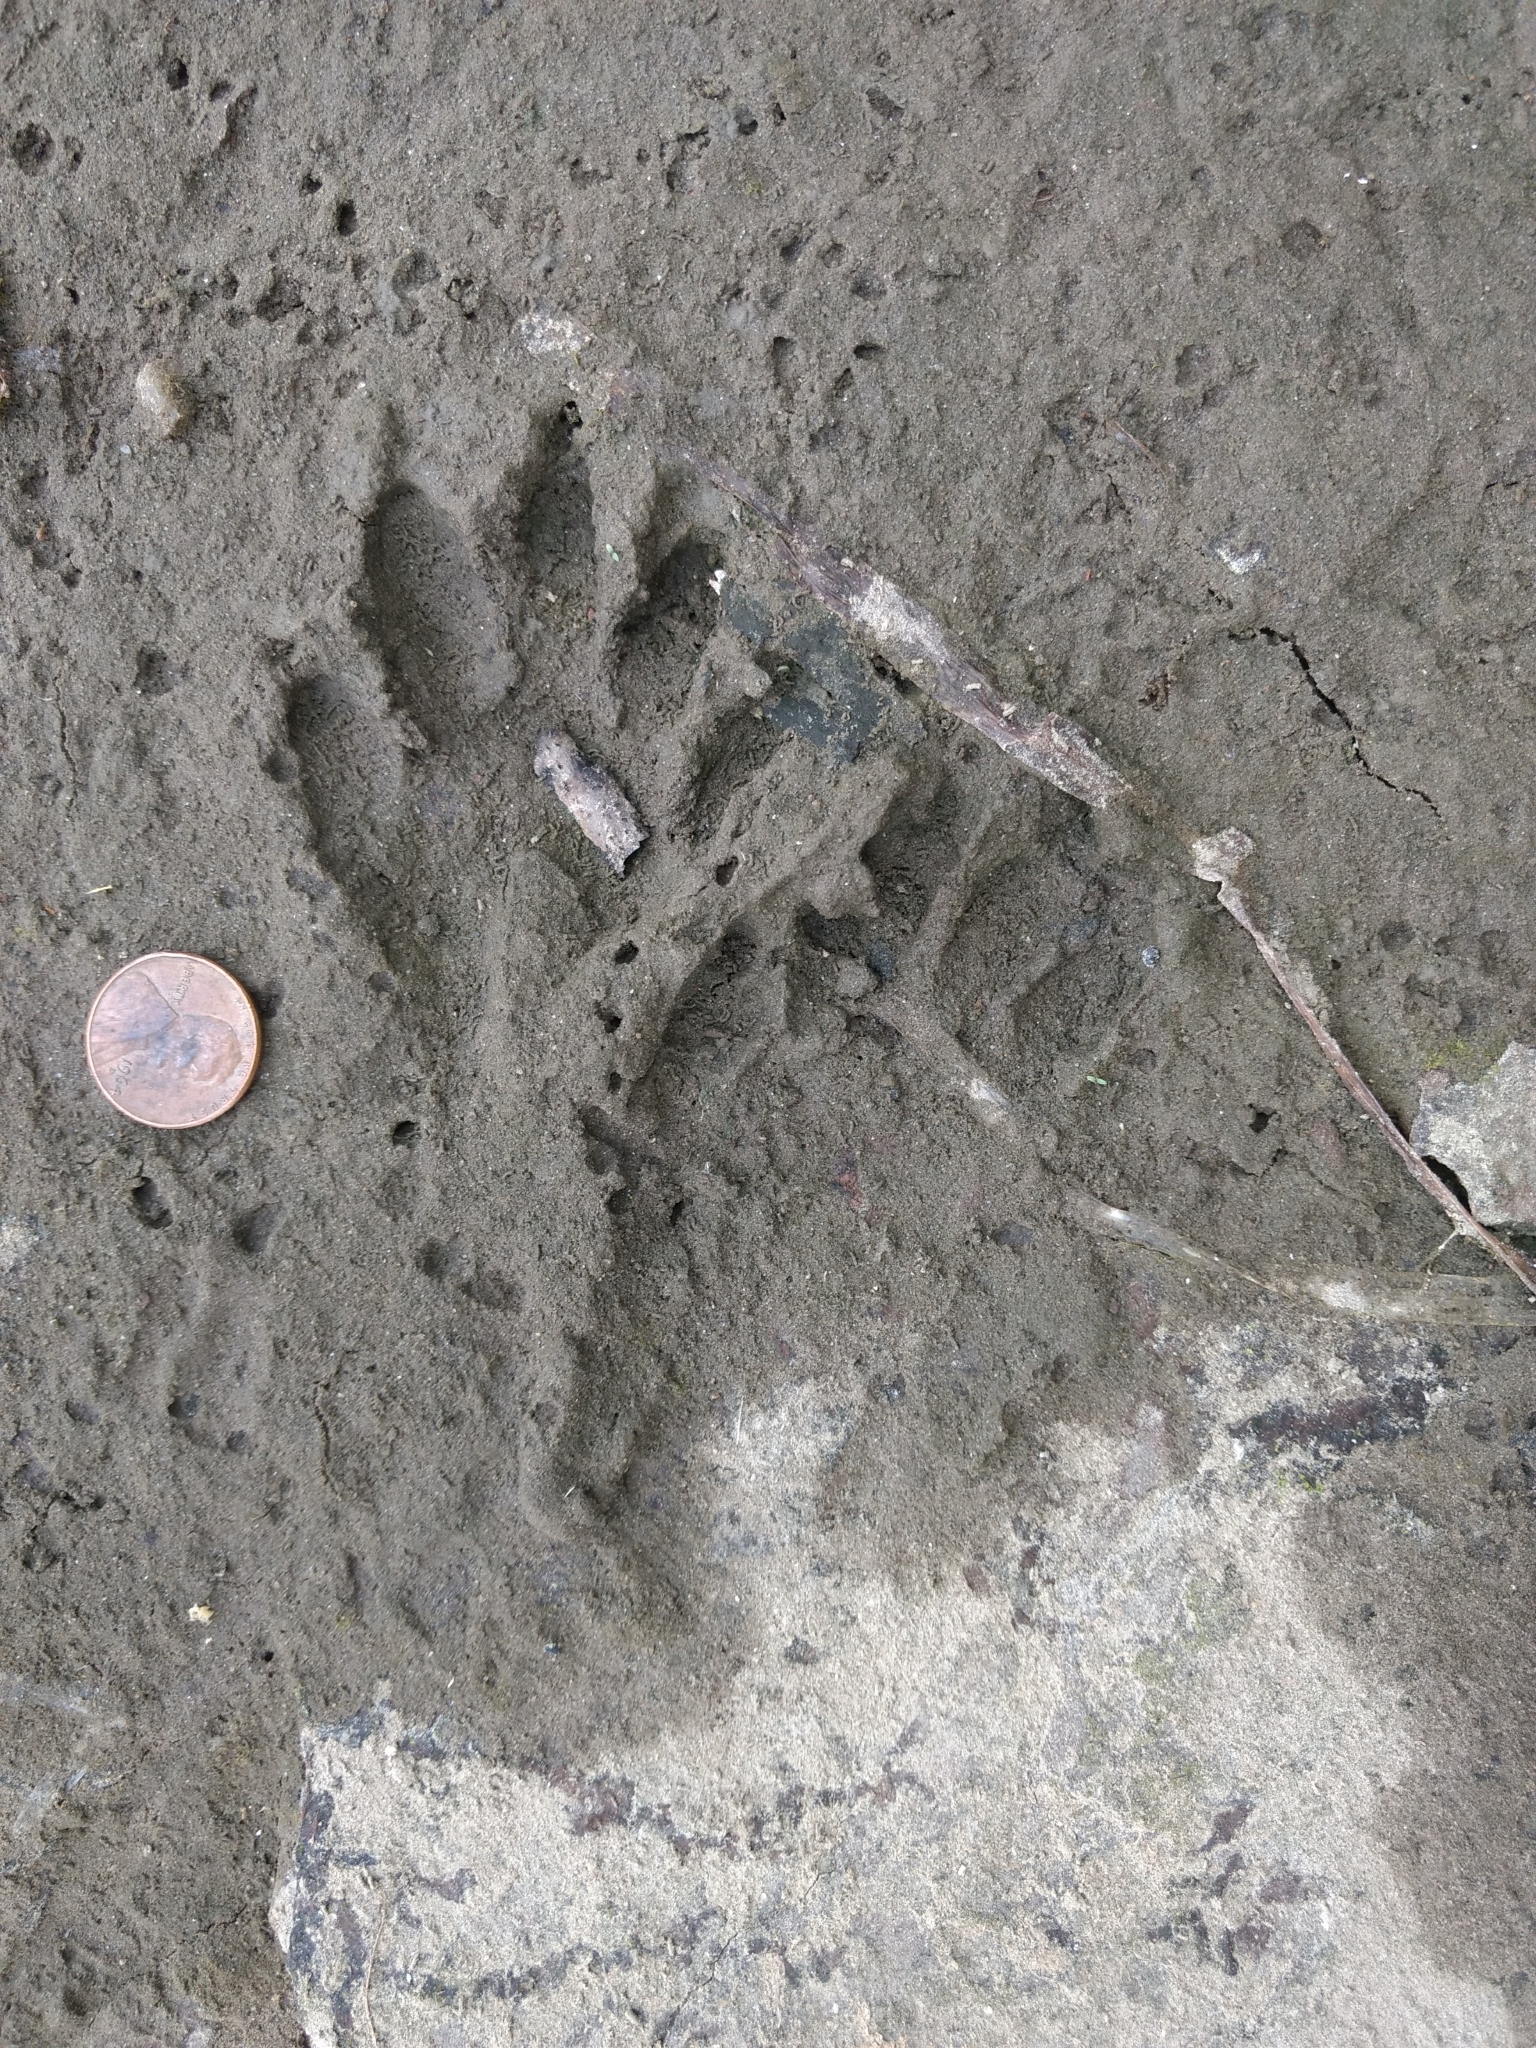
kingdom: Animalia
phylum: Chordata
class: Mammalia
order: Carnivora
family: Procyonidae
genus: Procyon
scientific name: Procyon lotor
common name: Raccoon
